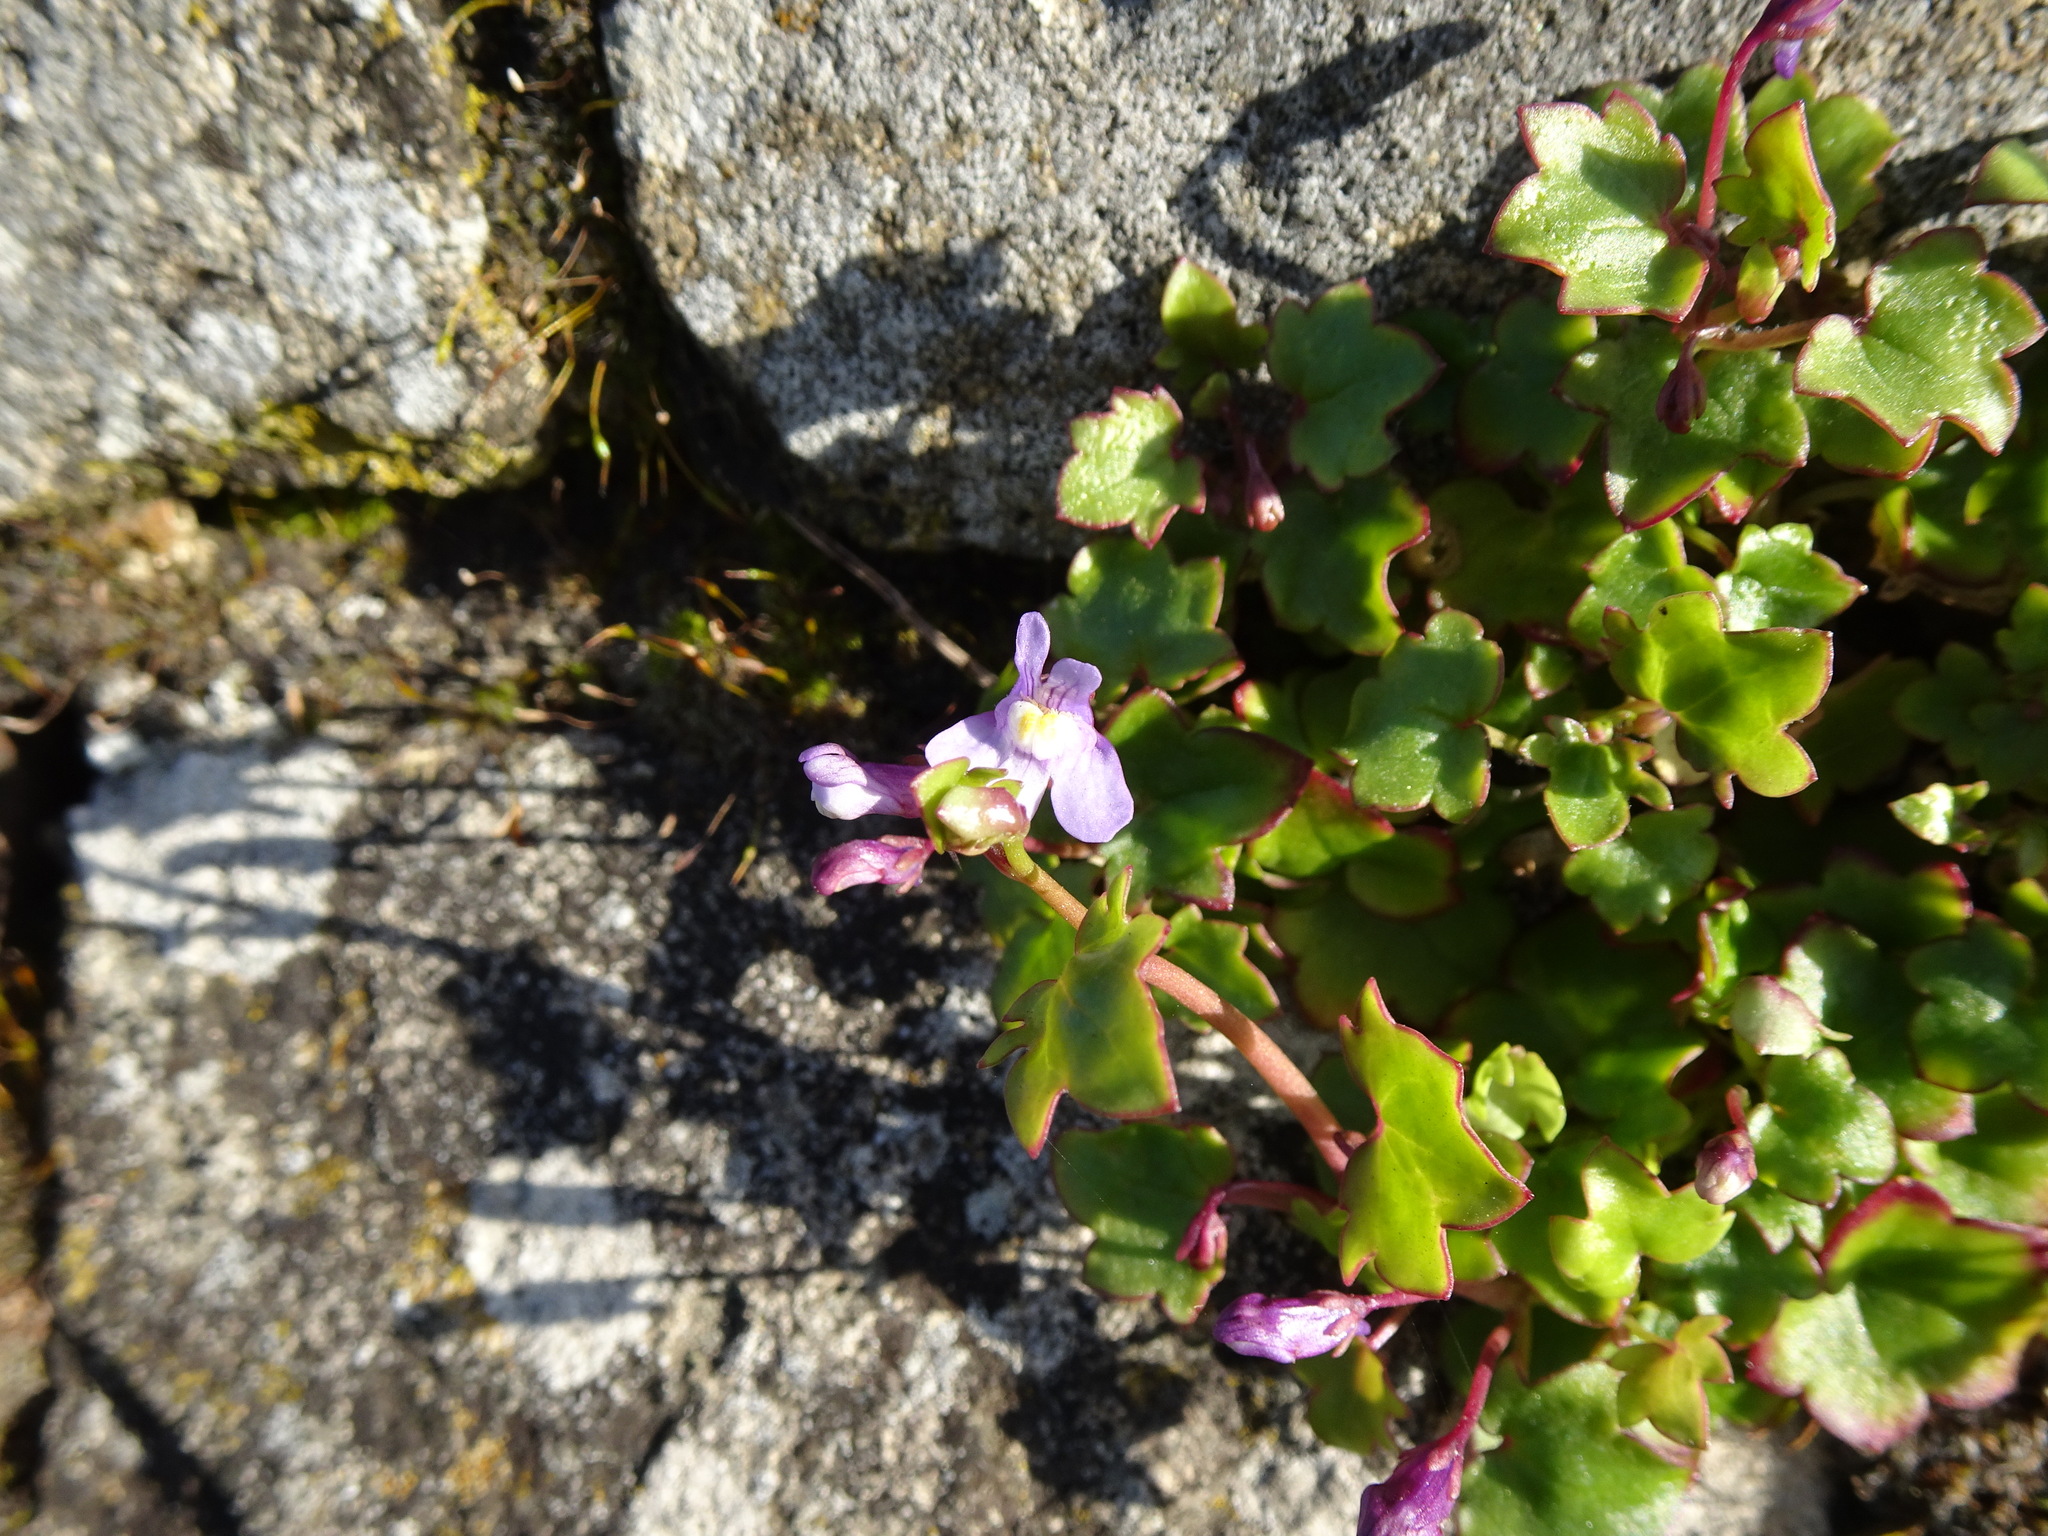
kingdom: Plantae
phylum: Tracheophyta
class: Magnoliopsida
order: Lamiales
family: Plantaginaceae
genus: Cymbalaria
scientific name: Cymbalaria muralis
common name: Ivy-leaved toadflax
